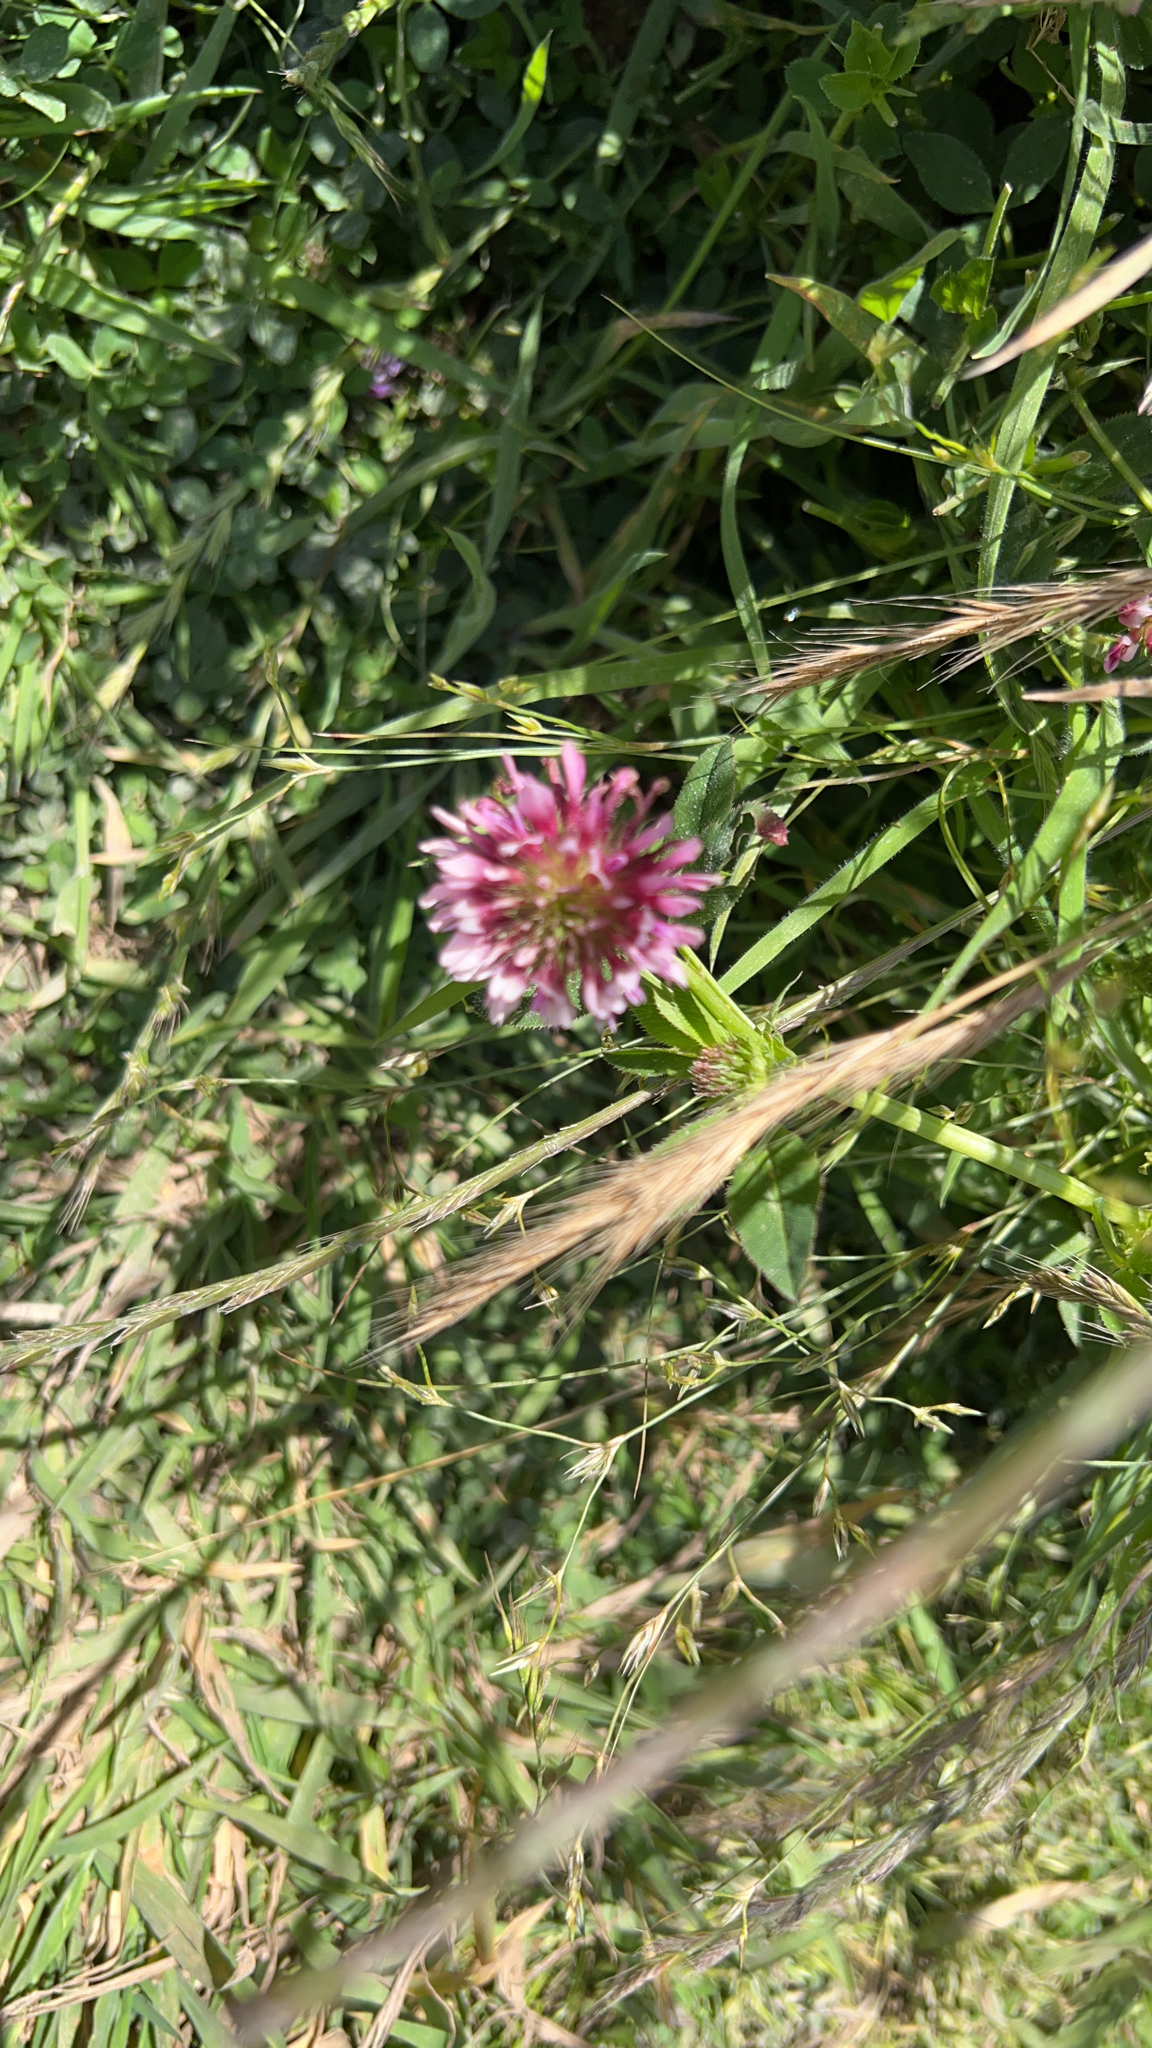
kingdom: Plantae
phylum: Tracheophyta
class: Magnoliopsida
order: Fabales
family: Fabaceae
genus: Trifolium
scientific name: Trifolium wormskioldii
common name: Springbank clover
